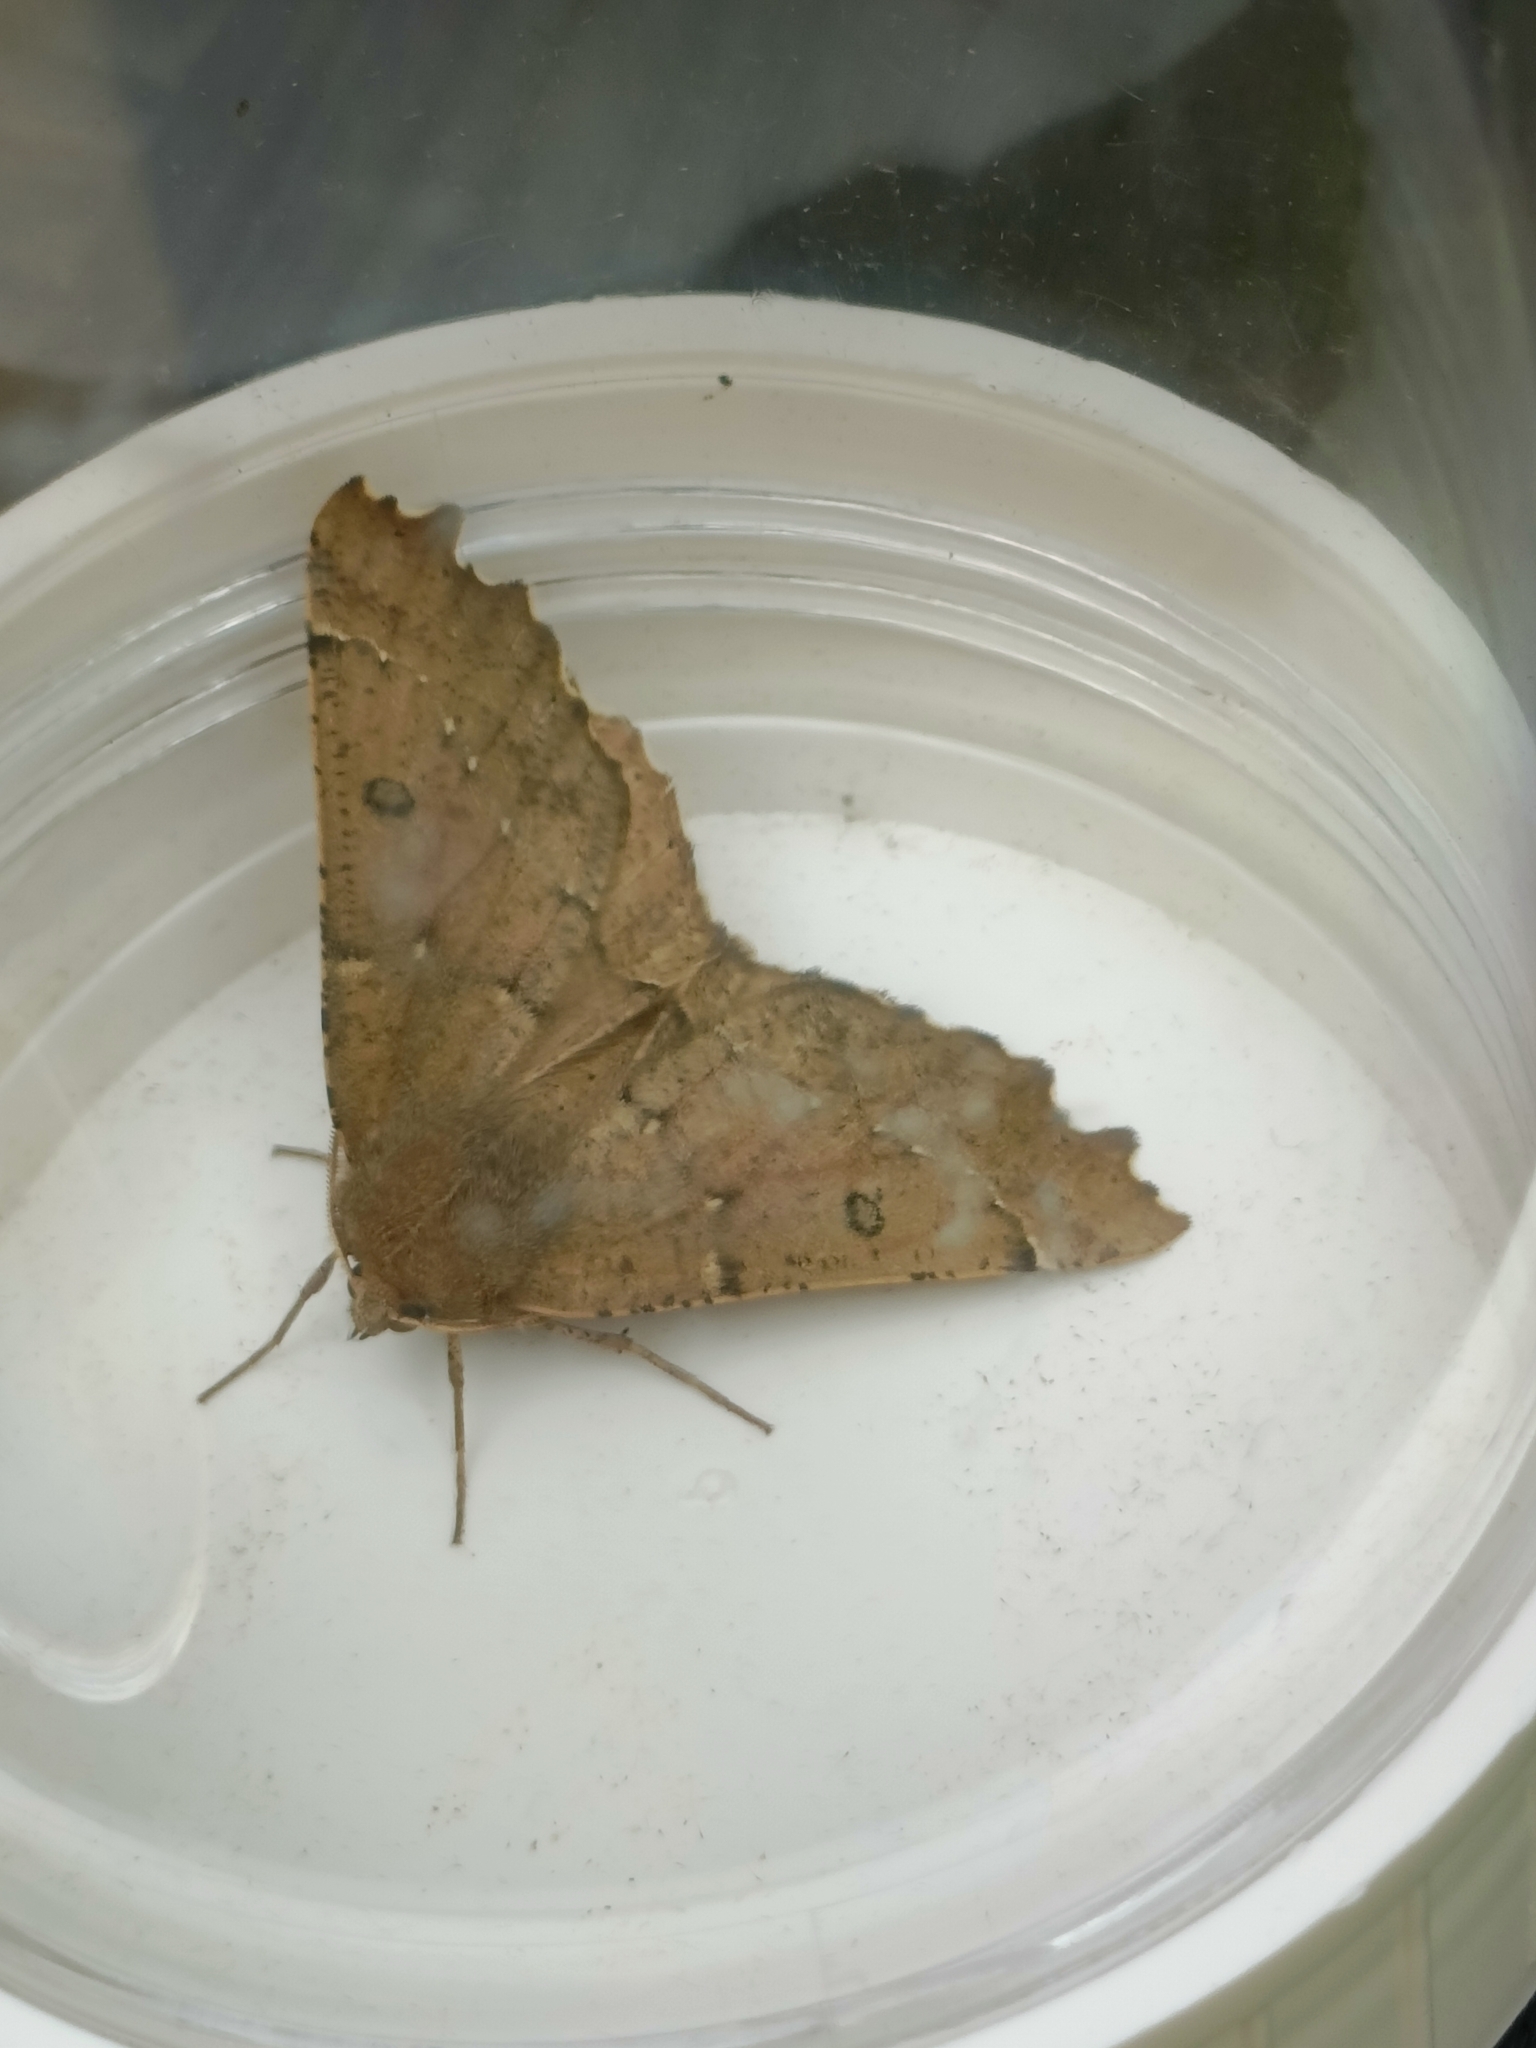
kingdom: Animalia
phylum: Arthropoda
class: Insecta
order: Lepidoptera
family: Geometridae
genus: Odontopera
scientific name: Odontopera bidentata
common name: Scalloped hazel
